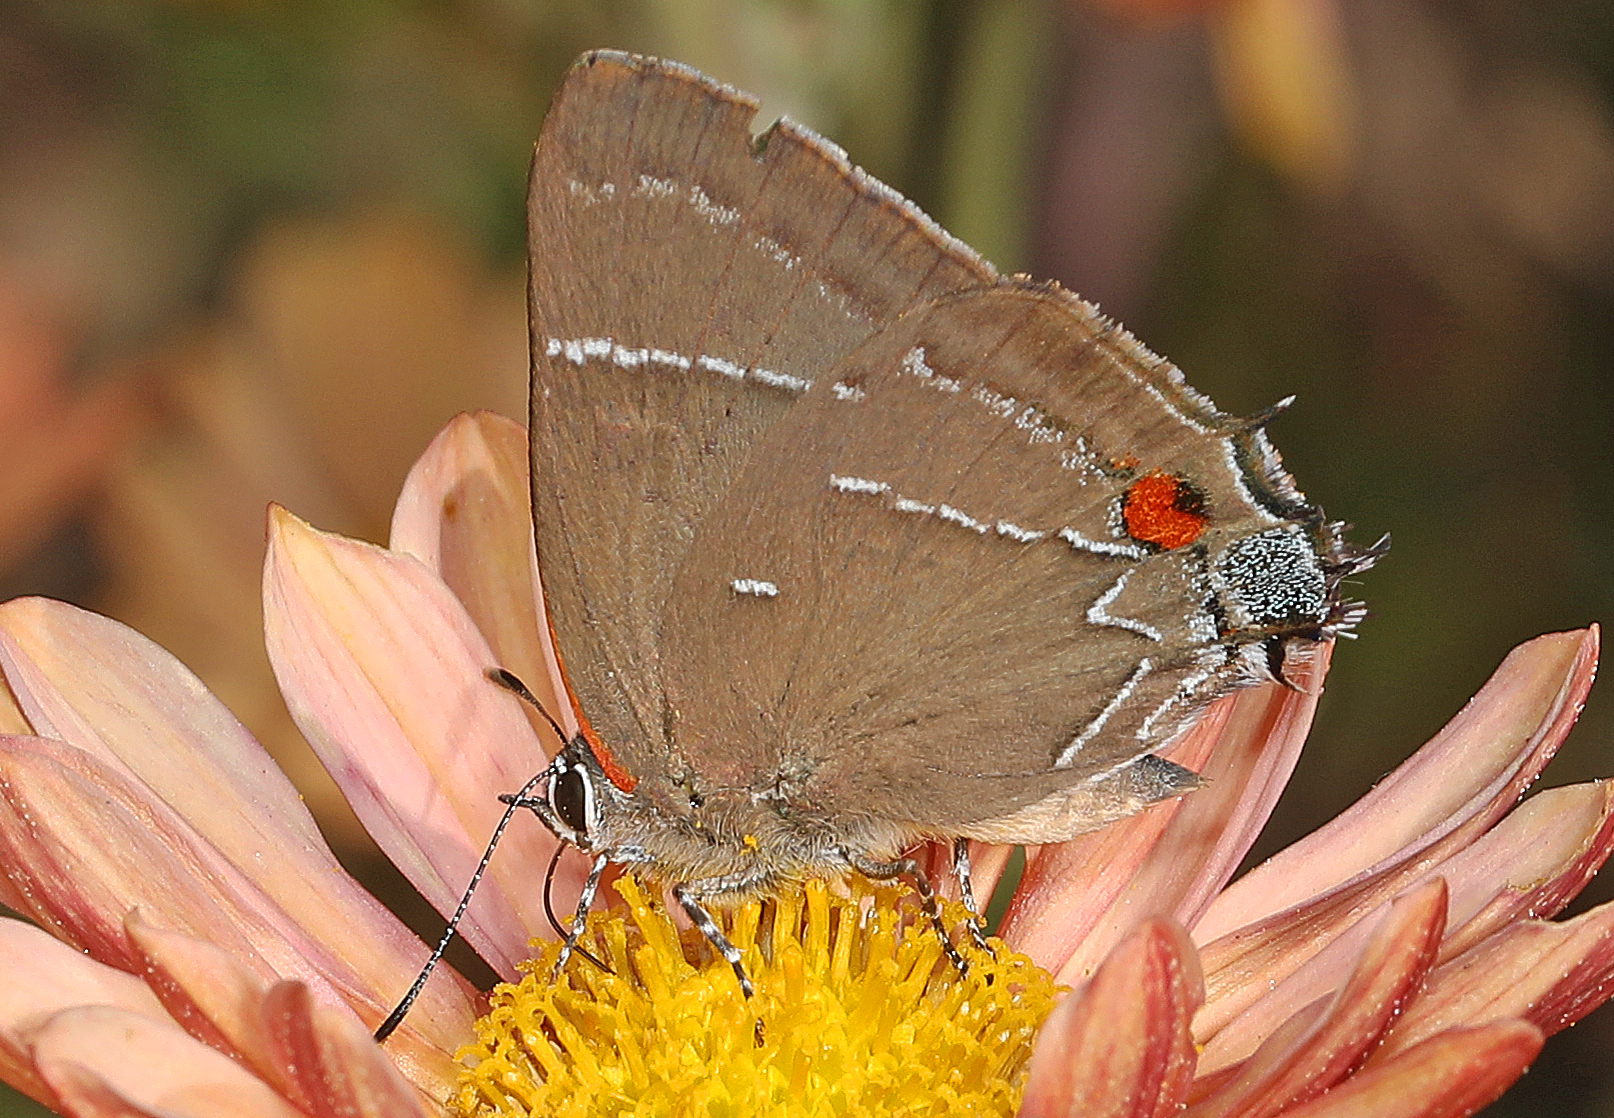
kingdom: Animalia
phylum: Arthropoda
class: Insecta
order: Lepidoptera
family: Lycaenidae
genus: Parrhasius
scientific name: Parrhasius m-album
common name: White m hairstreak
